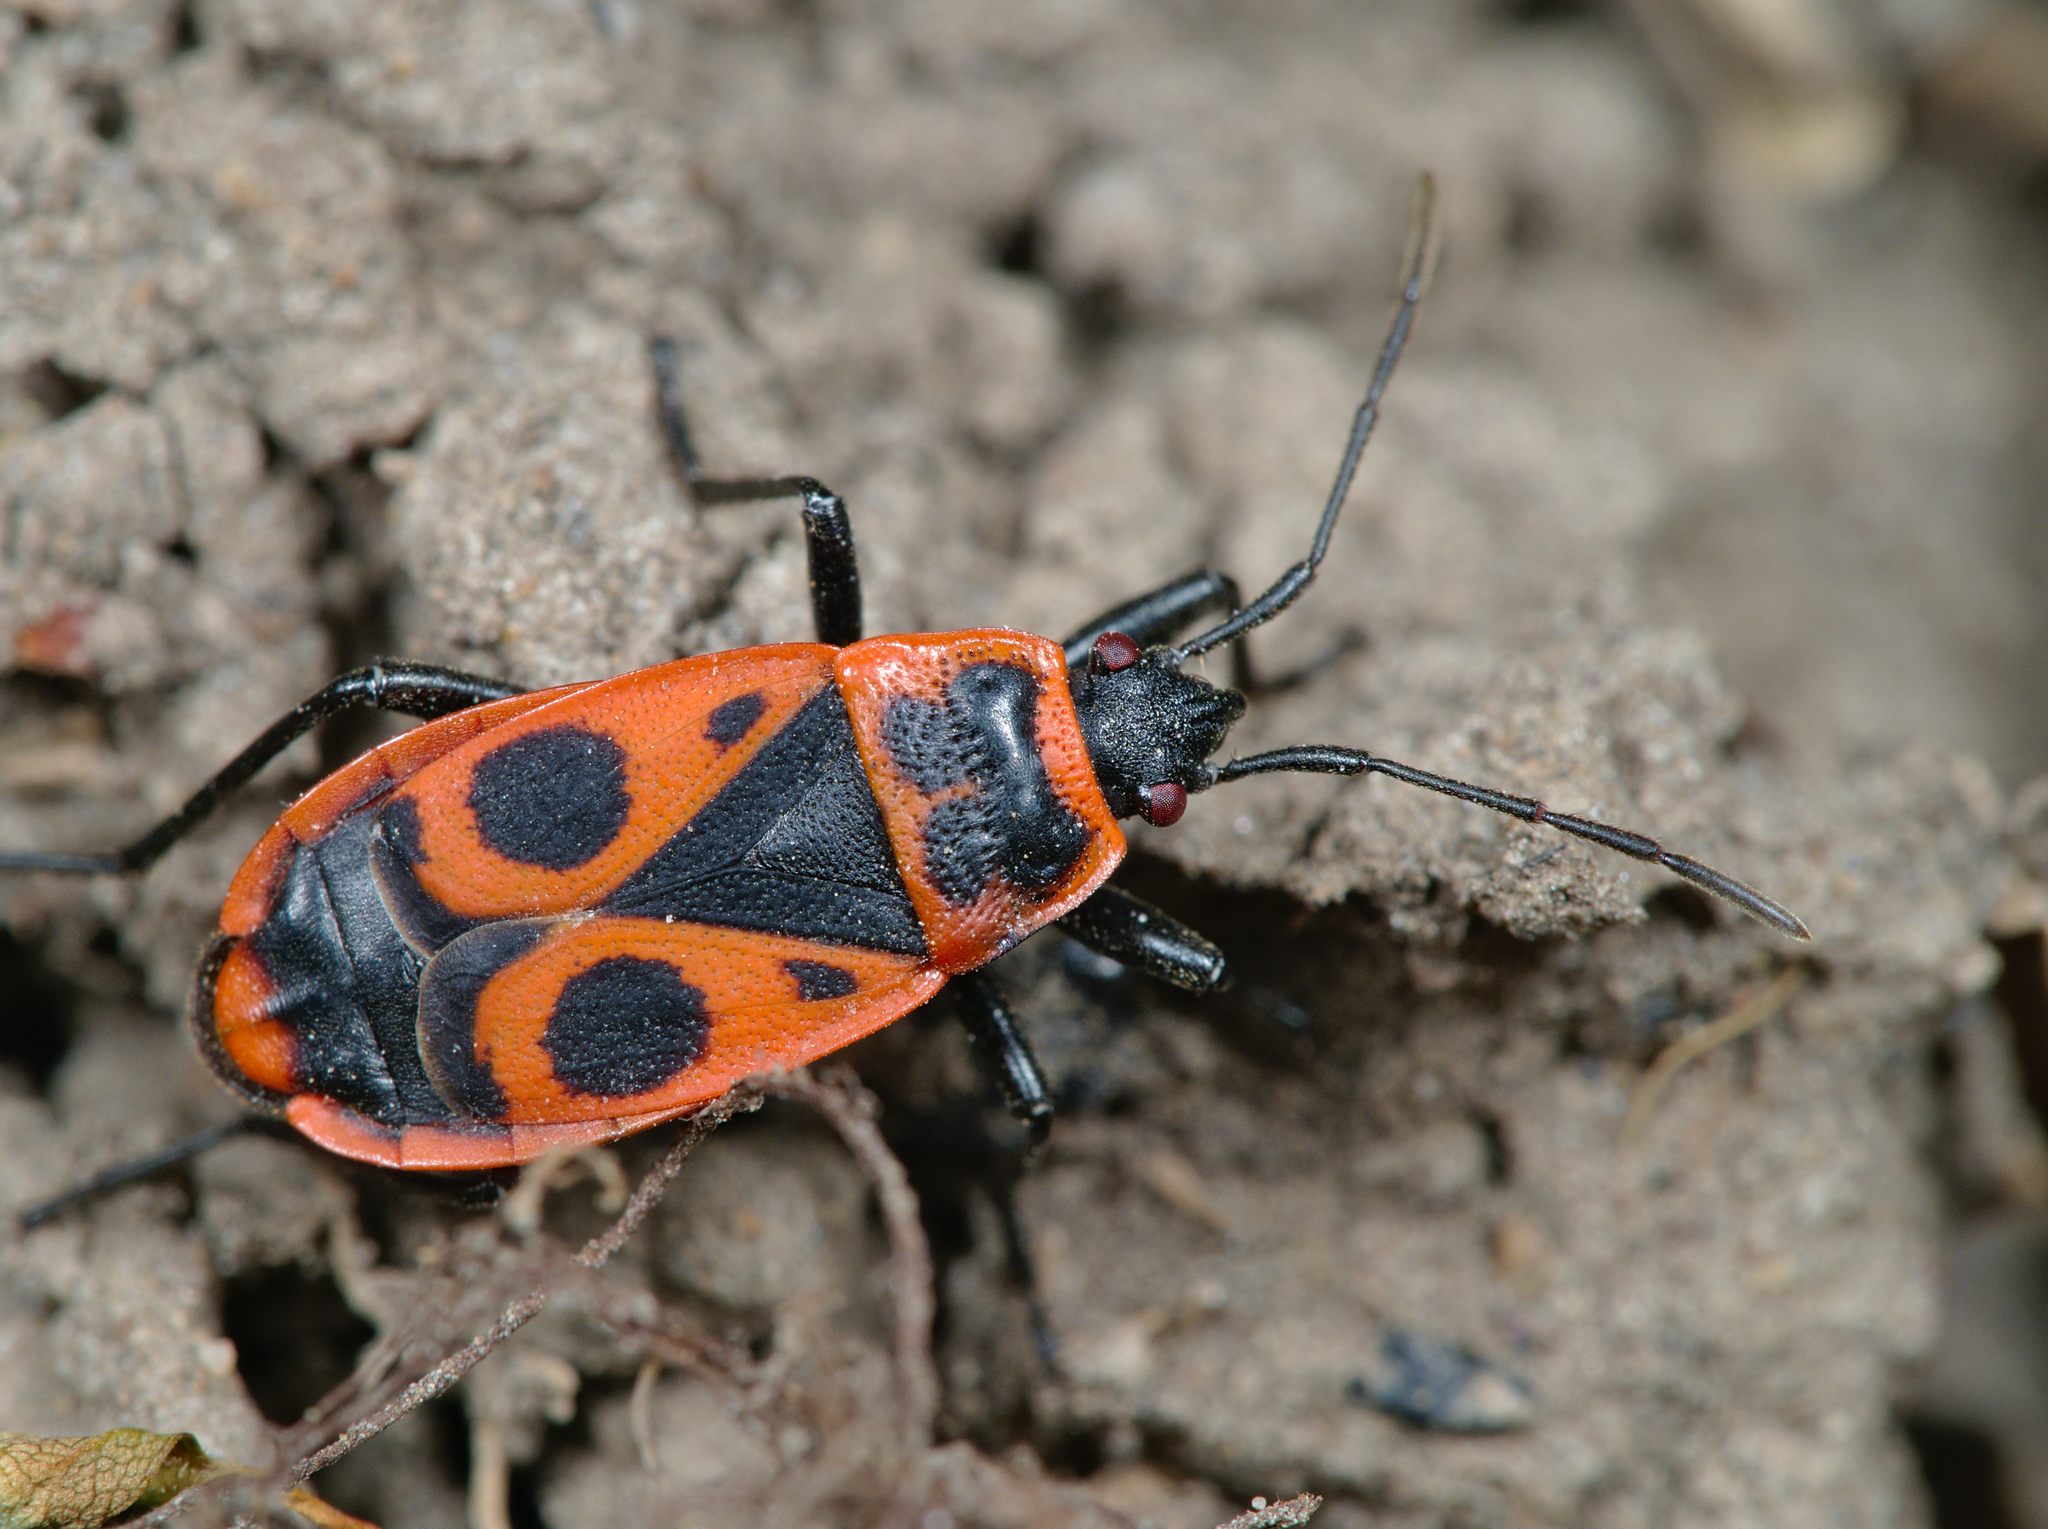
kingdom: Animalia
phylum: Arthropoda
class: Insecta
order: Hemiptera
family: Pyrrhocoridae
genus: Pyrrhocoris
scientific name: Pyrrhocoris apterus
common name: Firebug
